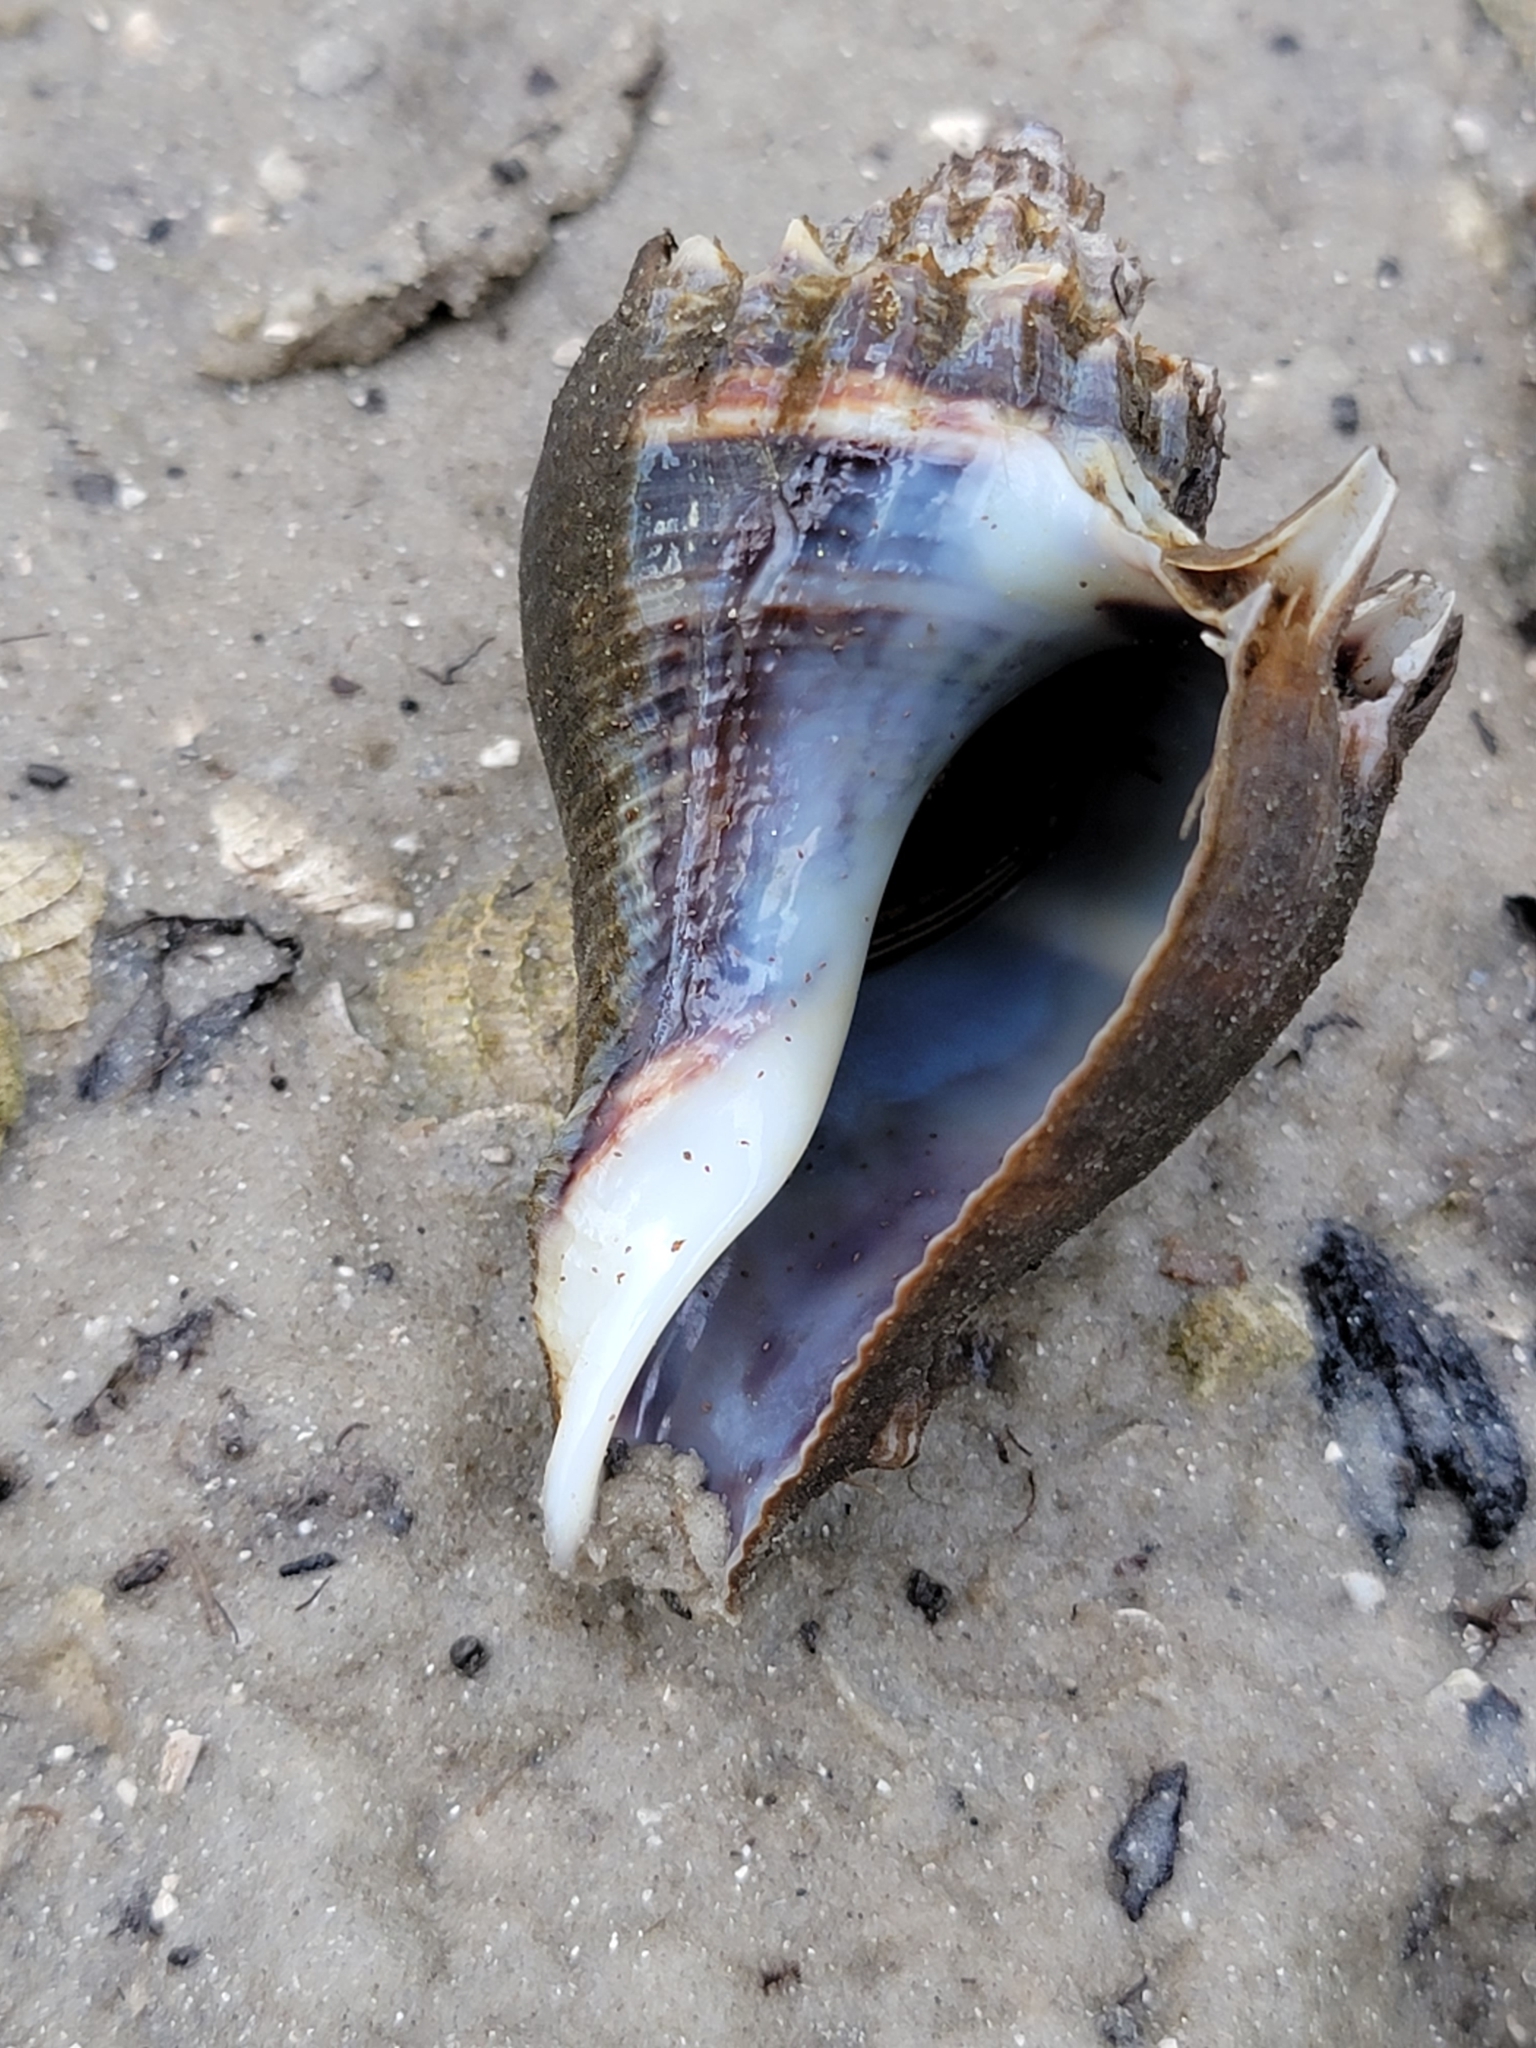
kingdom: Animalia
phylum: Mollusca
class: Gastropoda
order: Neogastropoda
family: Melongenidae
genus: Melongena
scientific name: Melongena corona
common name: American crown conch
